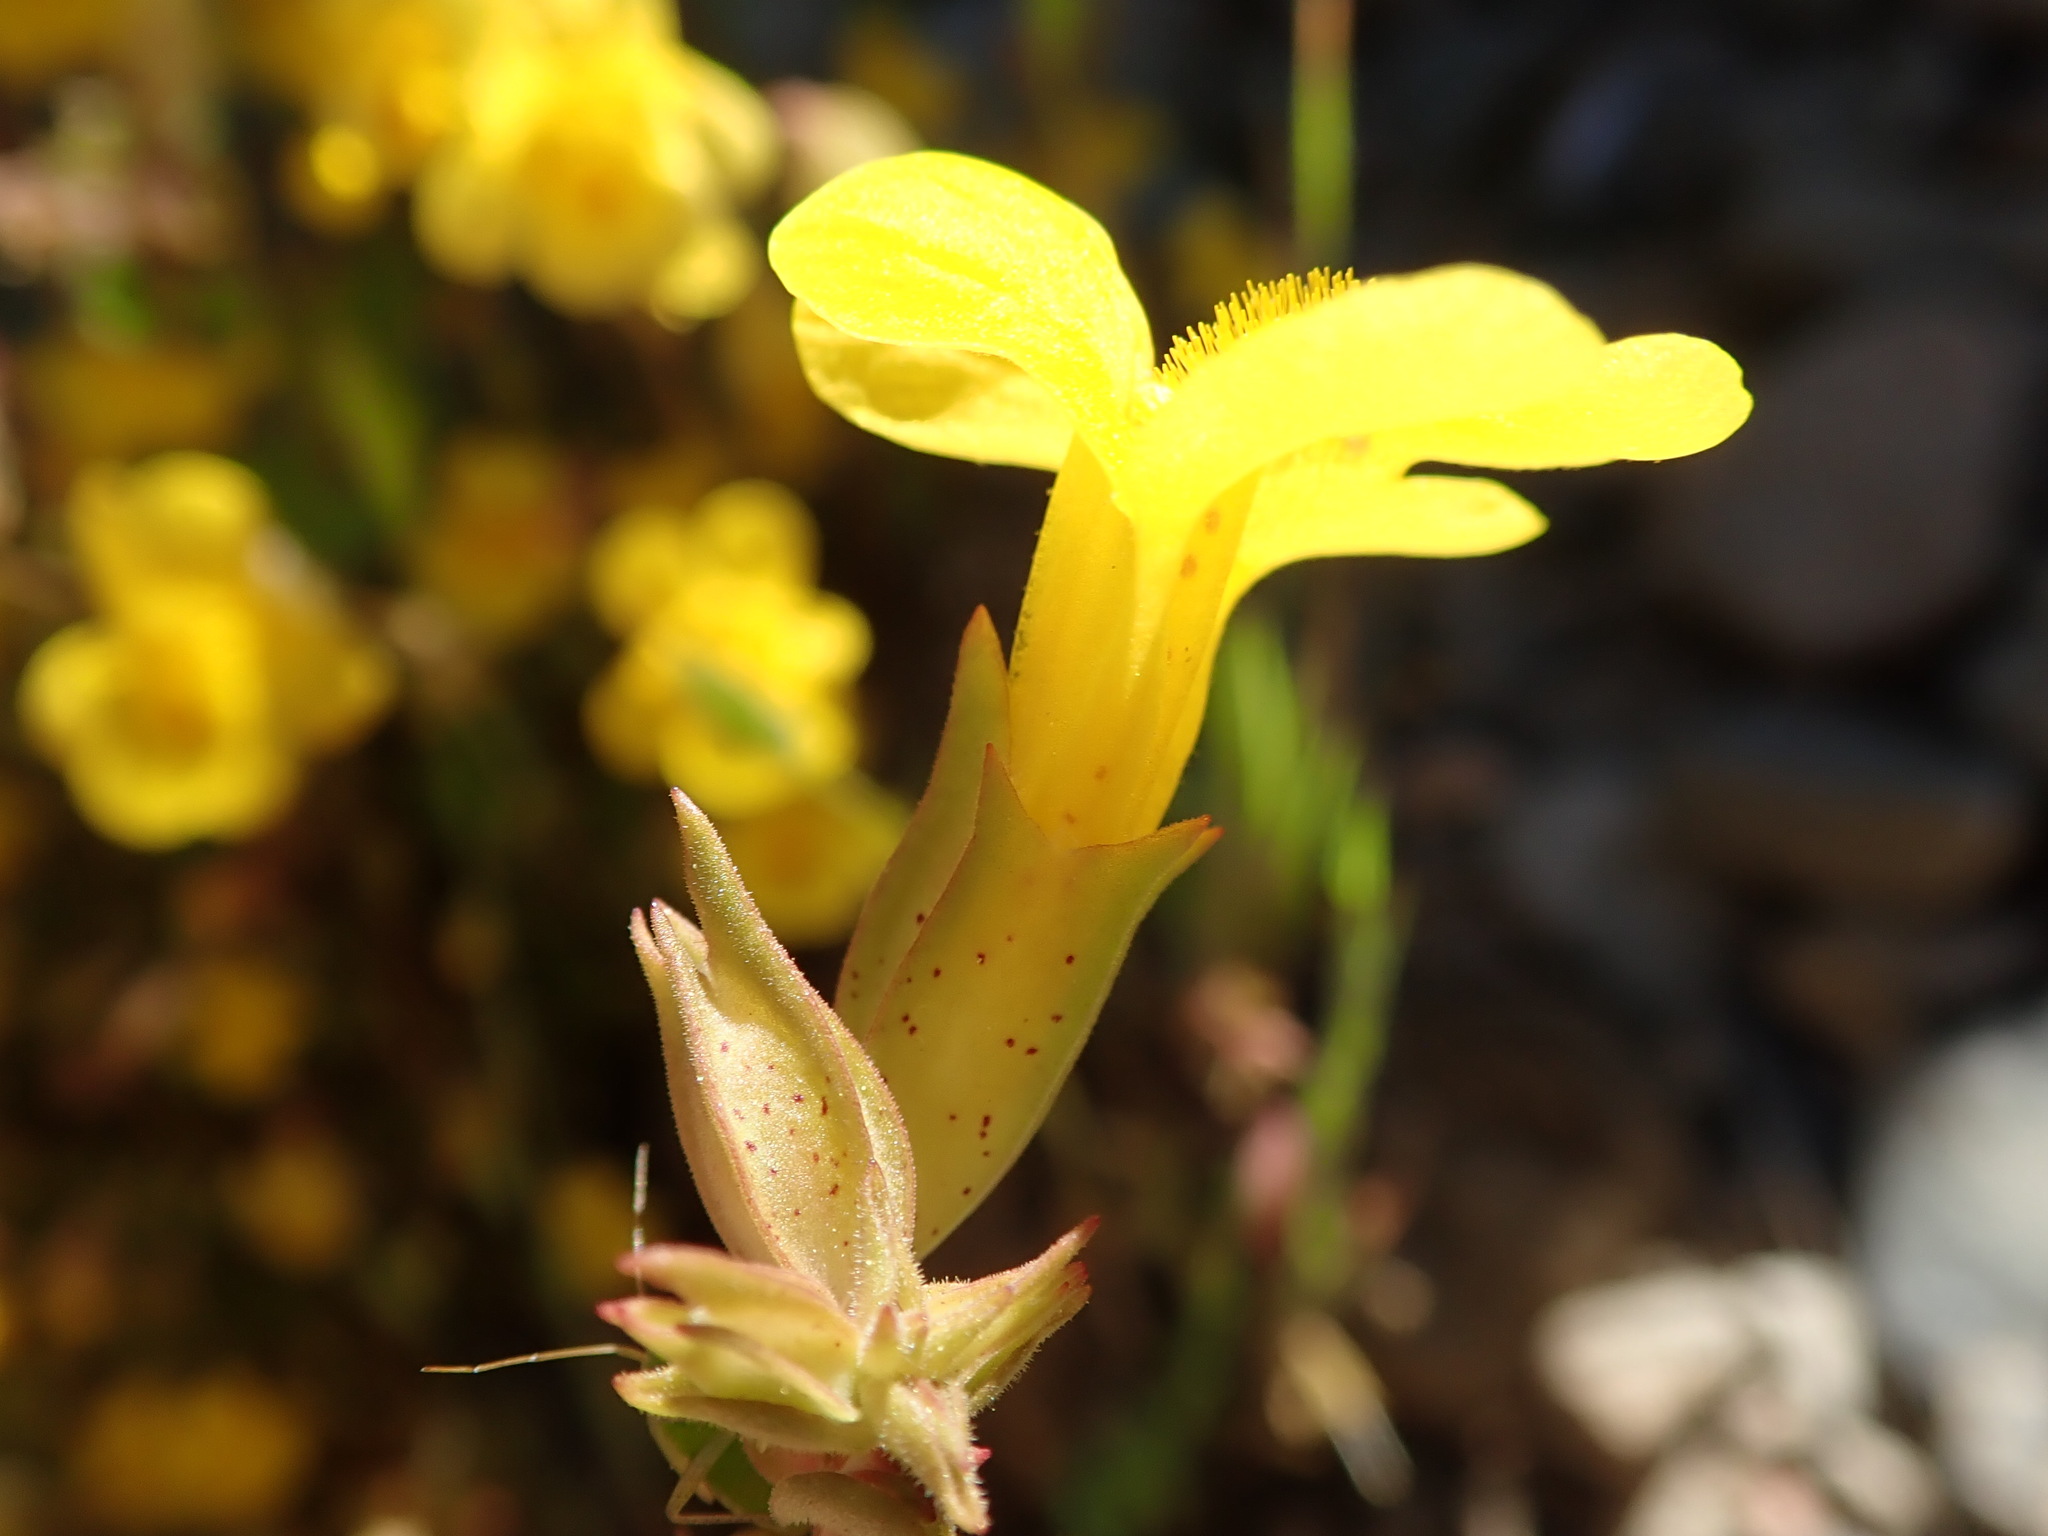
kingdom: Plantae
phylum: Tracheophyta
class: Magnoliopsida
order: Lamiales
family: Phrymaceae
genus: Erythranthe
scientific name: Erythranthe guttata
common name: Monkeyflower
